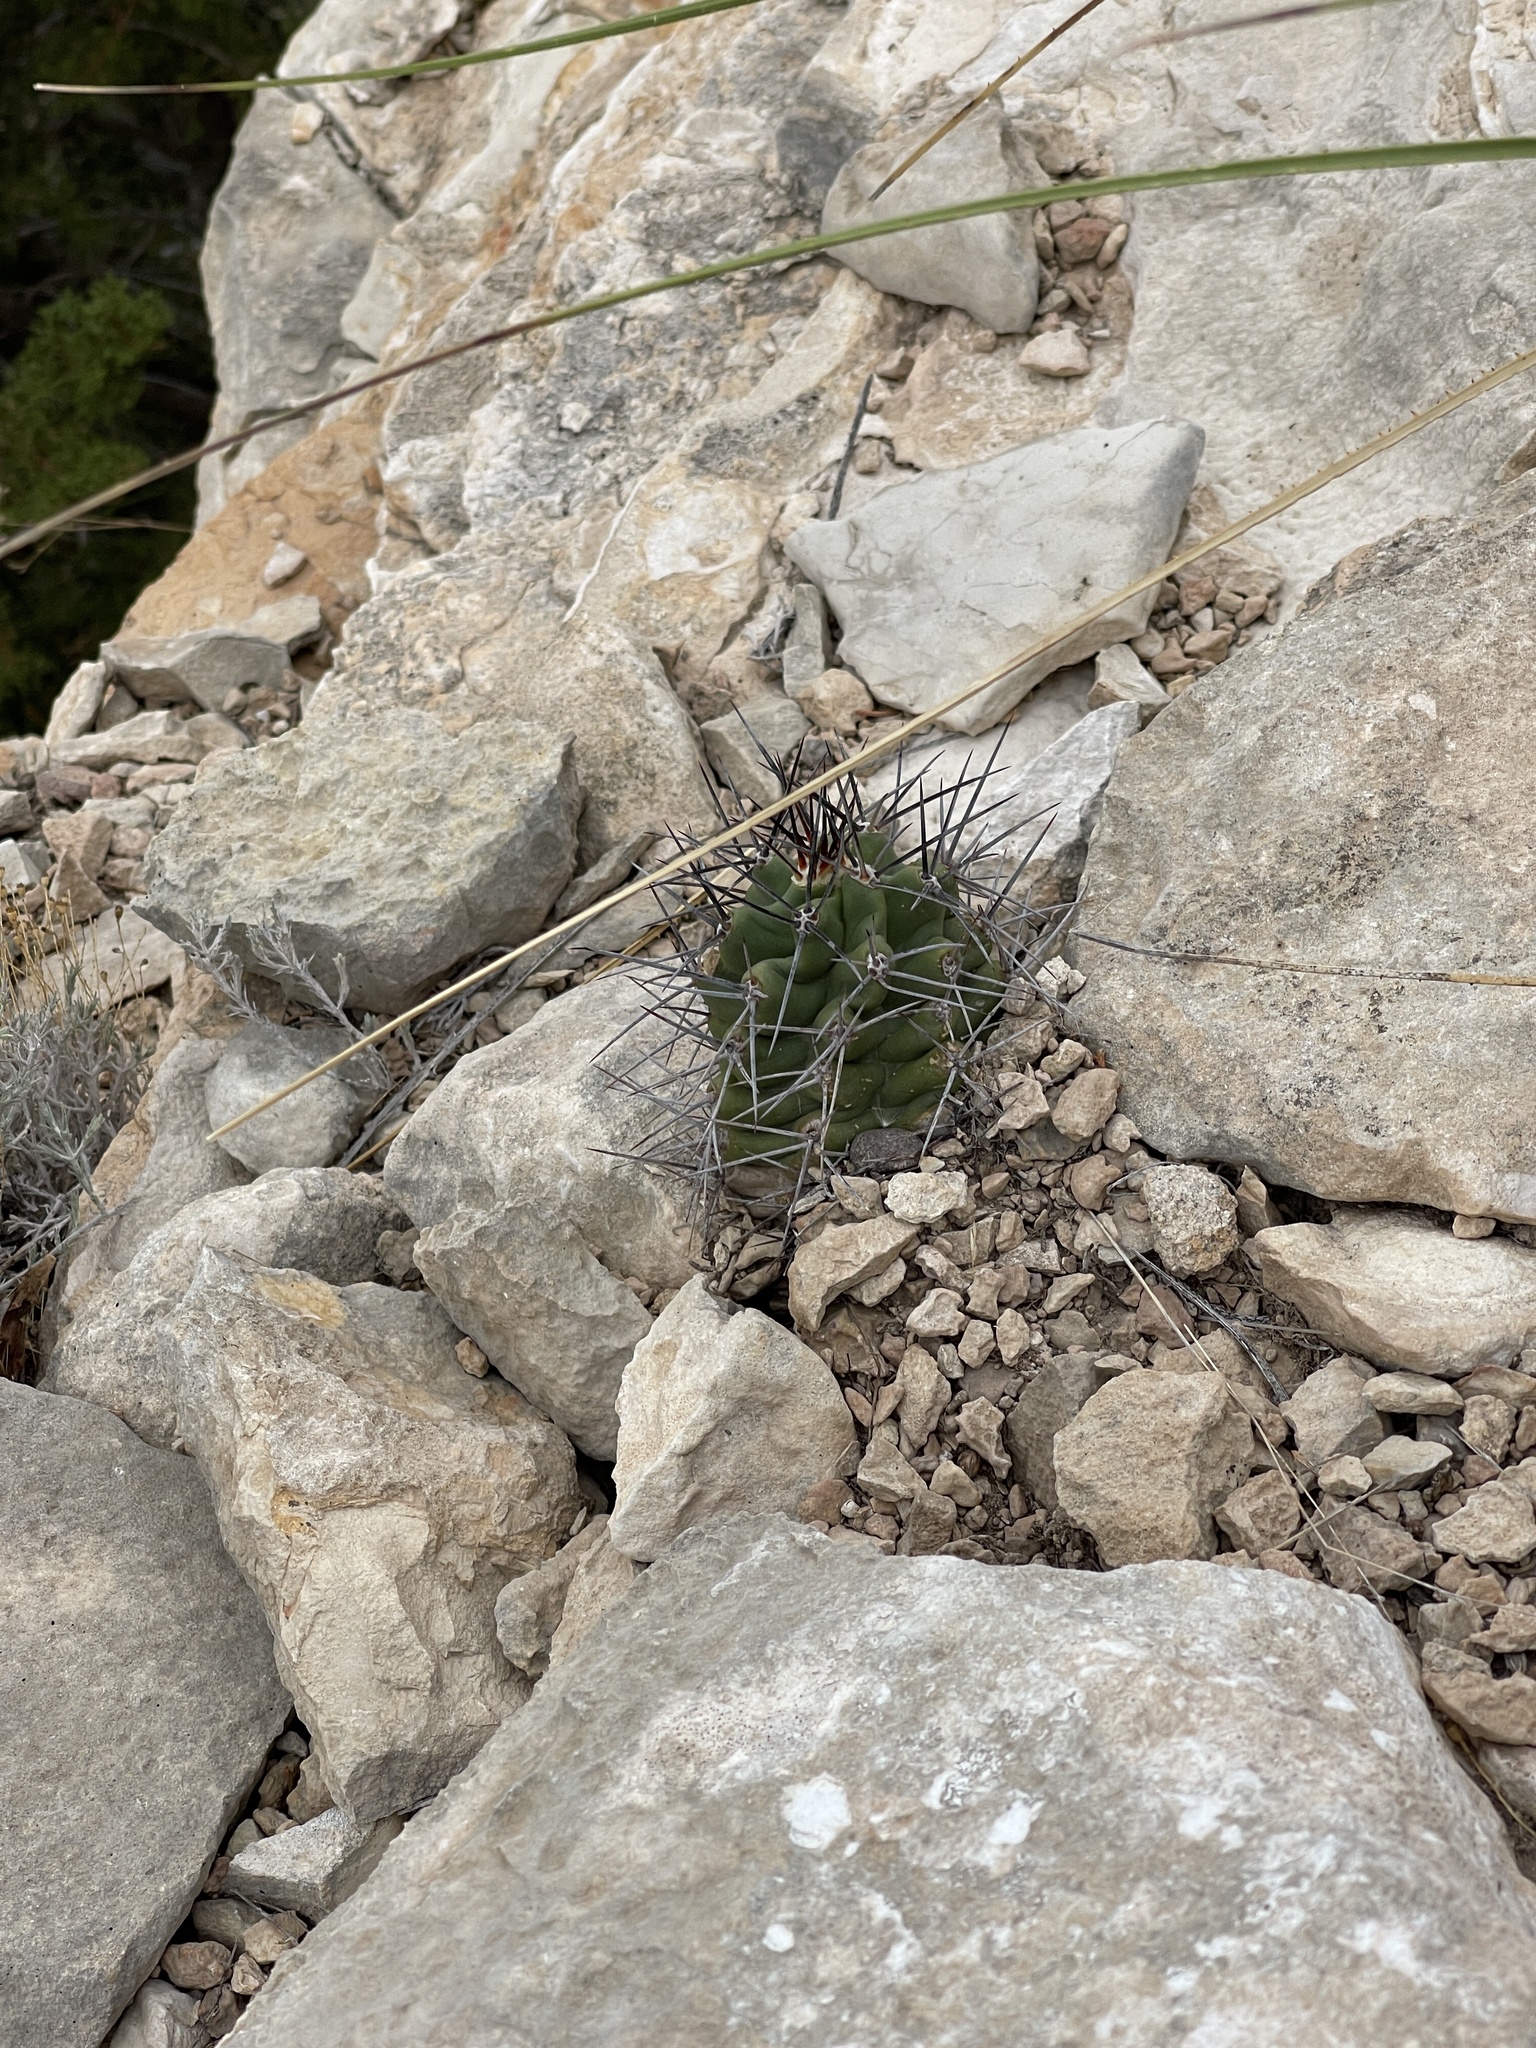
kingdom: Plantae
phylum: Tracheophyta
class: Magnoliopsida
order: Caryophyllales
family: Cactaceae
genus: Echinocereus
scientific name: Echinocereus coccineus
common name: Scarlet hedgehog cactus
